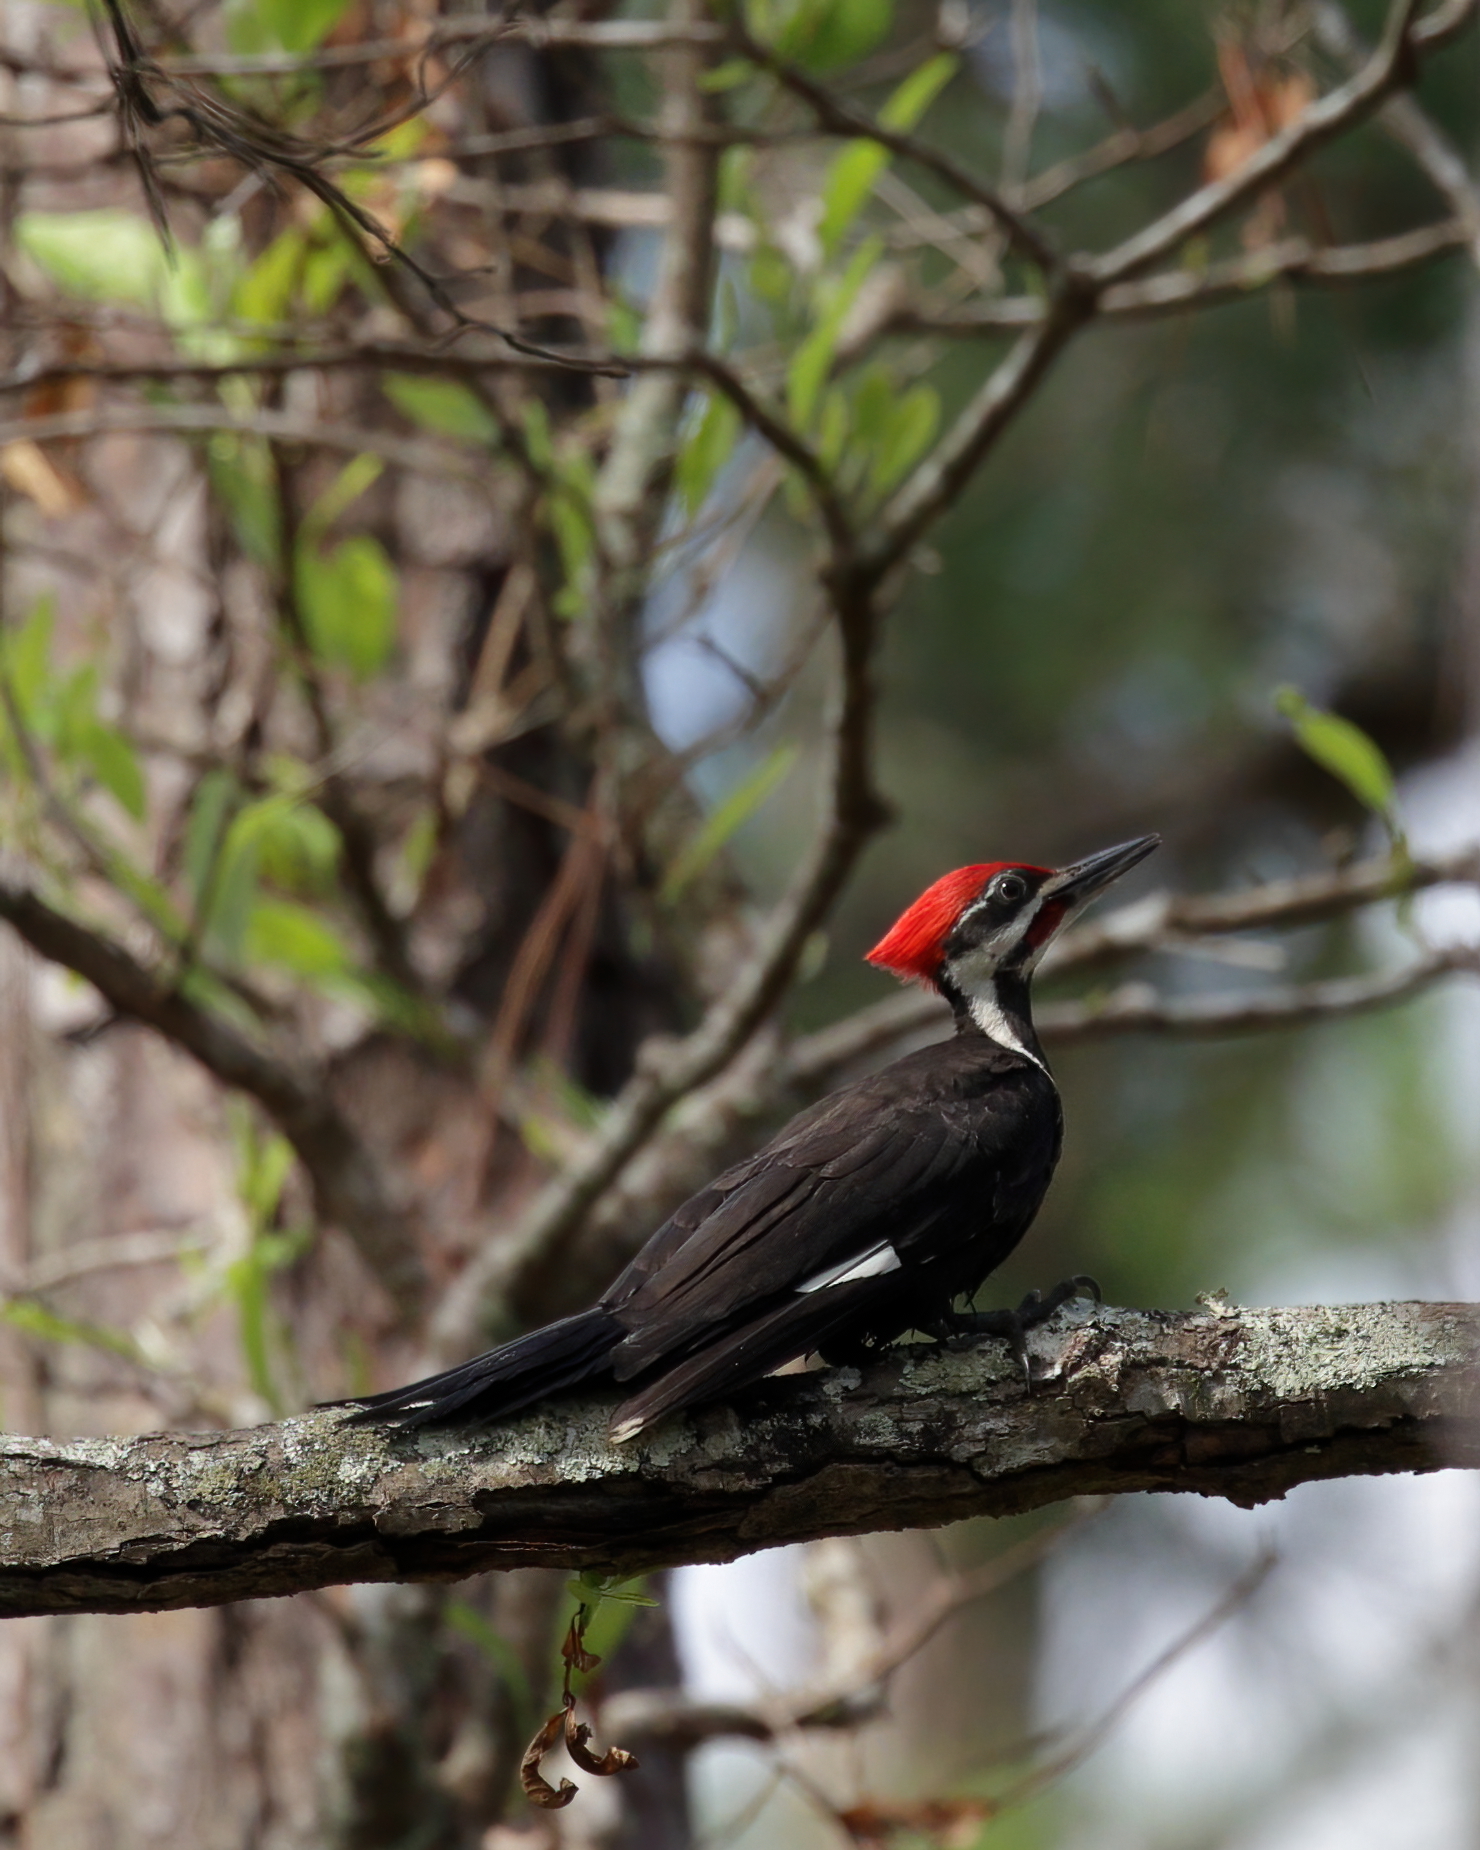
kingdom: Animalia
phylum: Chordata
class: Aves
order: Piciformes
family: Picidae
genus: Dryocopus
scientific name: Dryocopus pileatus
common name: Pileated woodpecker
